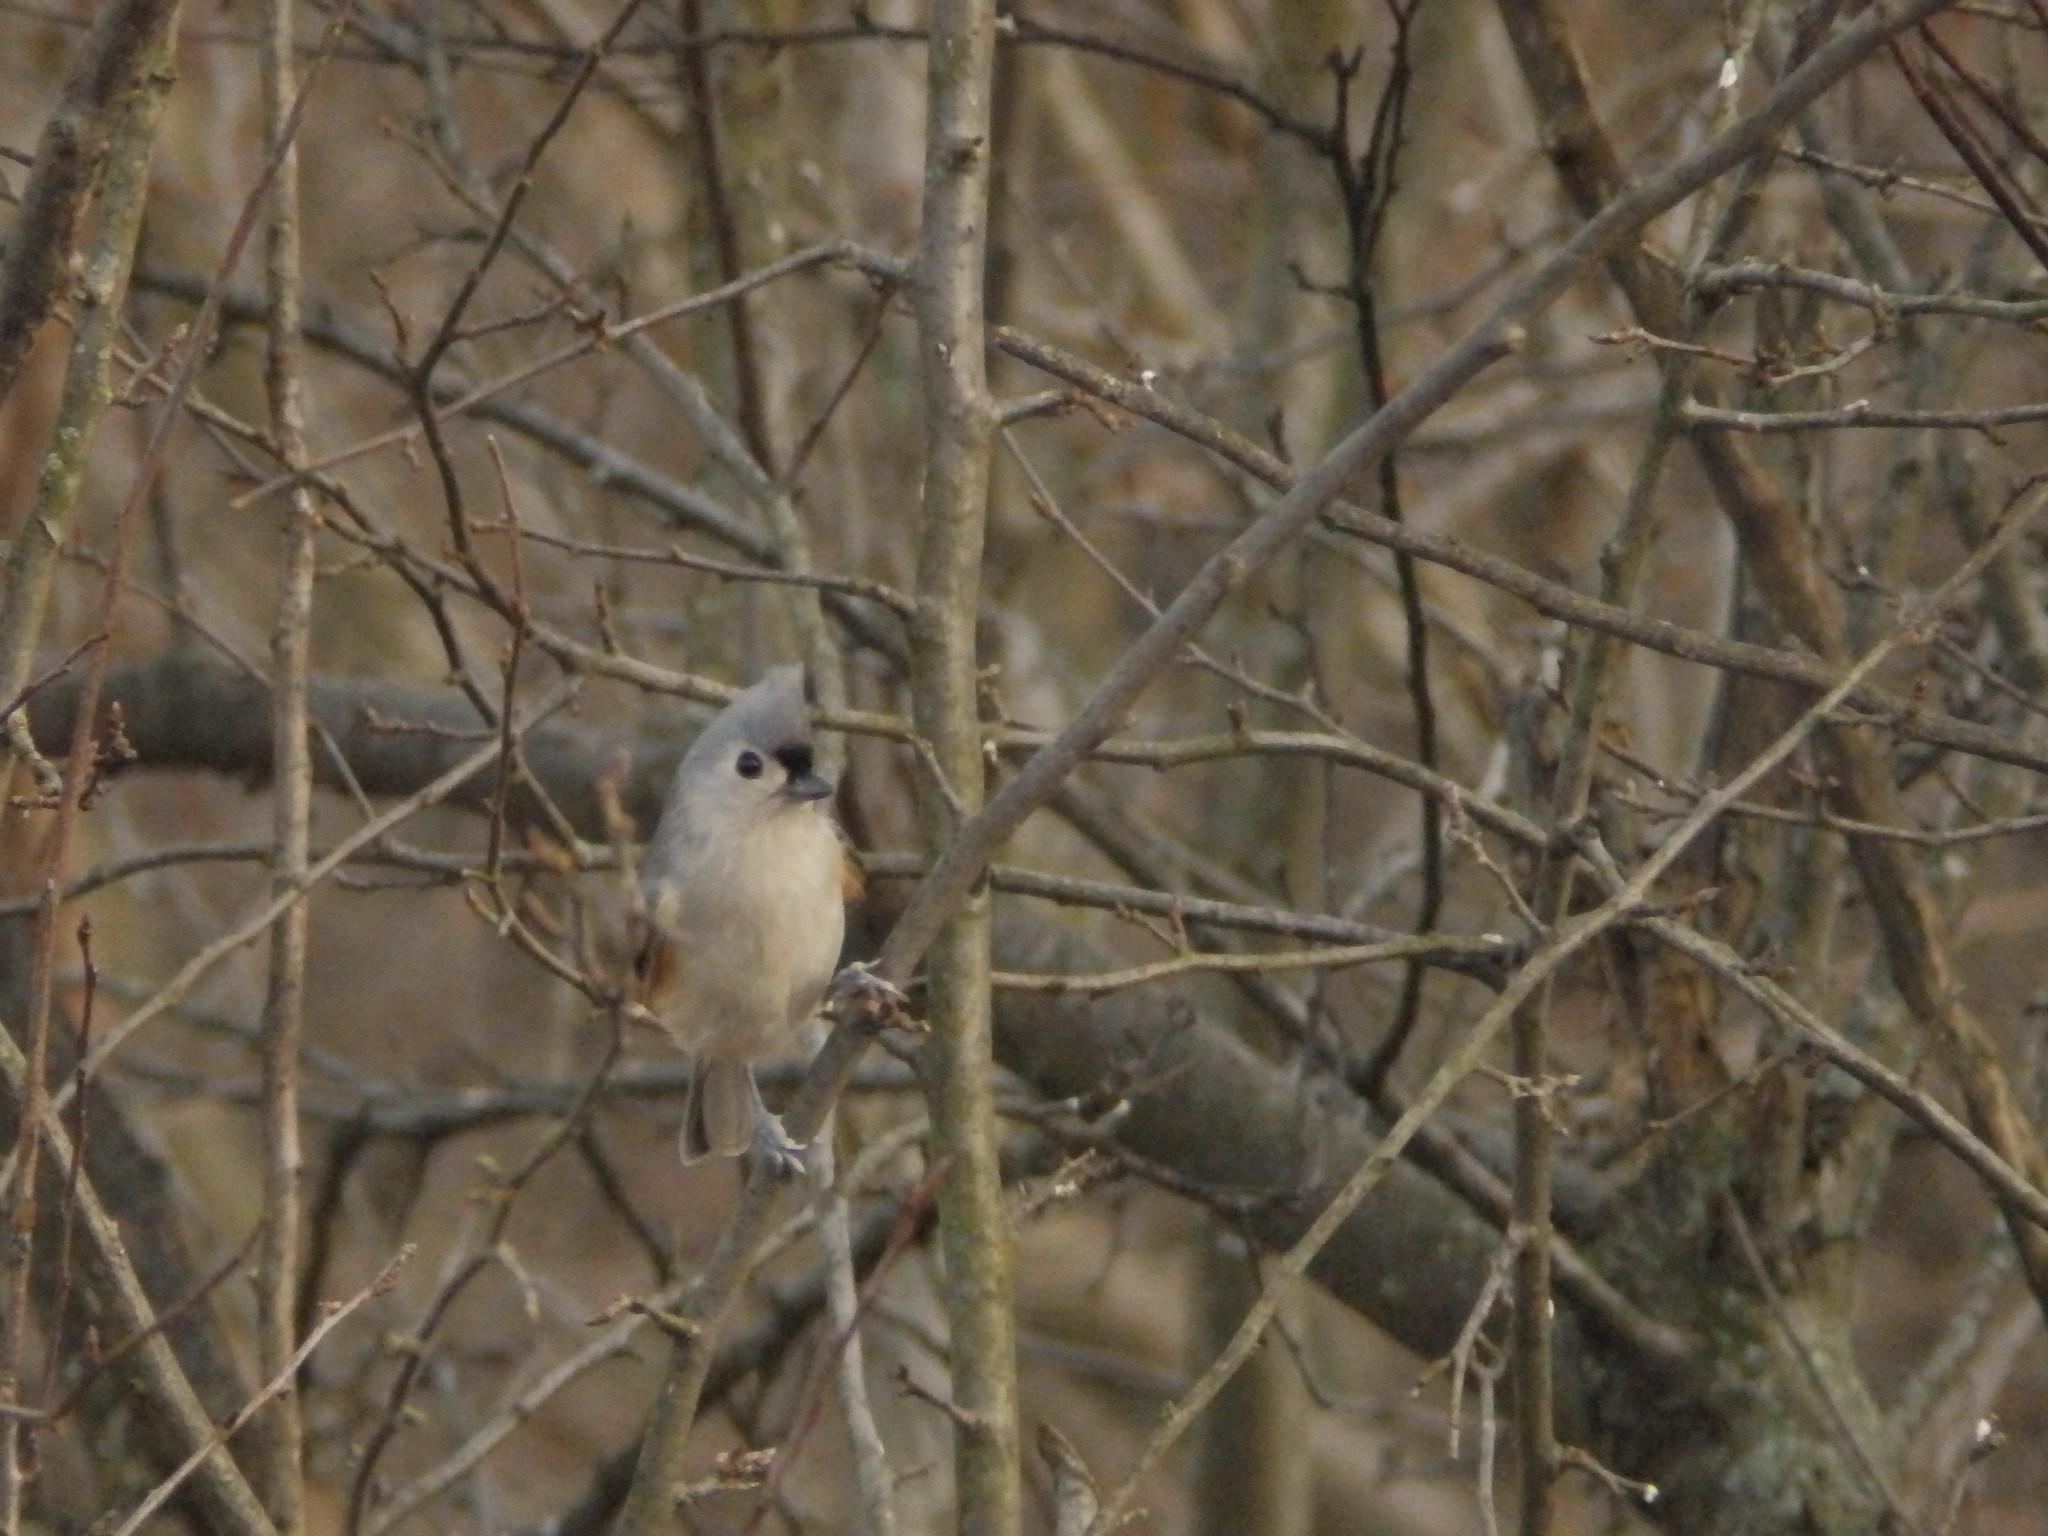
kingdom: Animalia
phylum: Chordata
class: Aves
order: Passeriformes
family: Paridae
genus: Baeolophus
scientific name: Baeolophus bicolor
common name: Tufted titmouse
